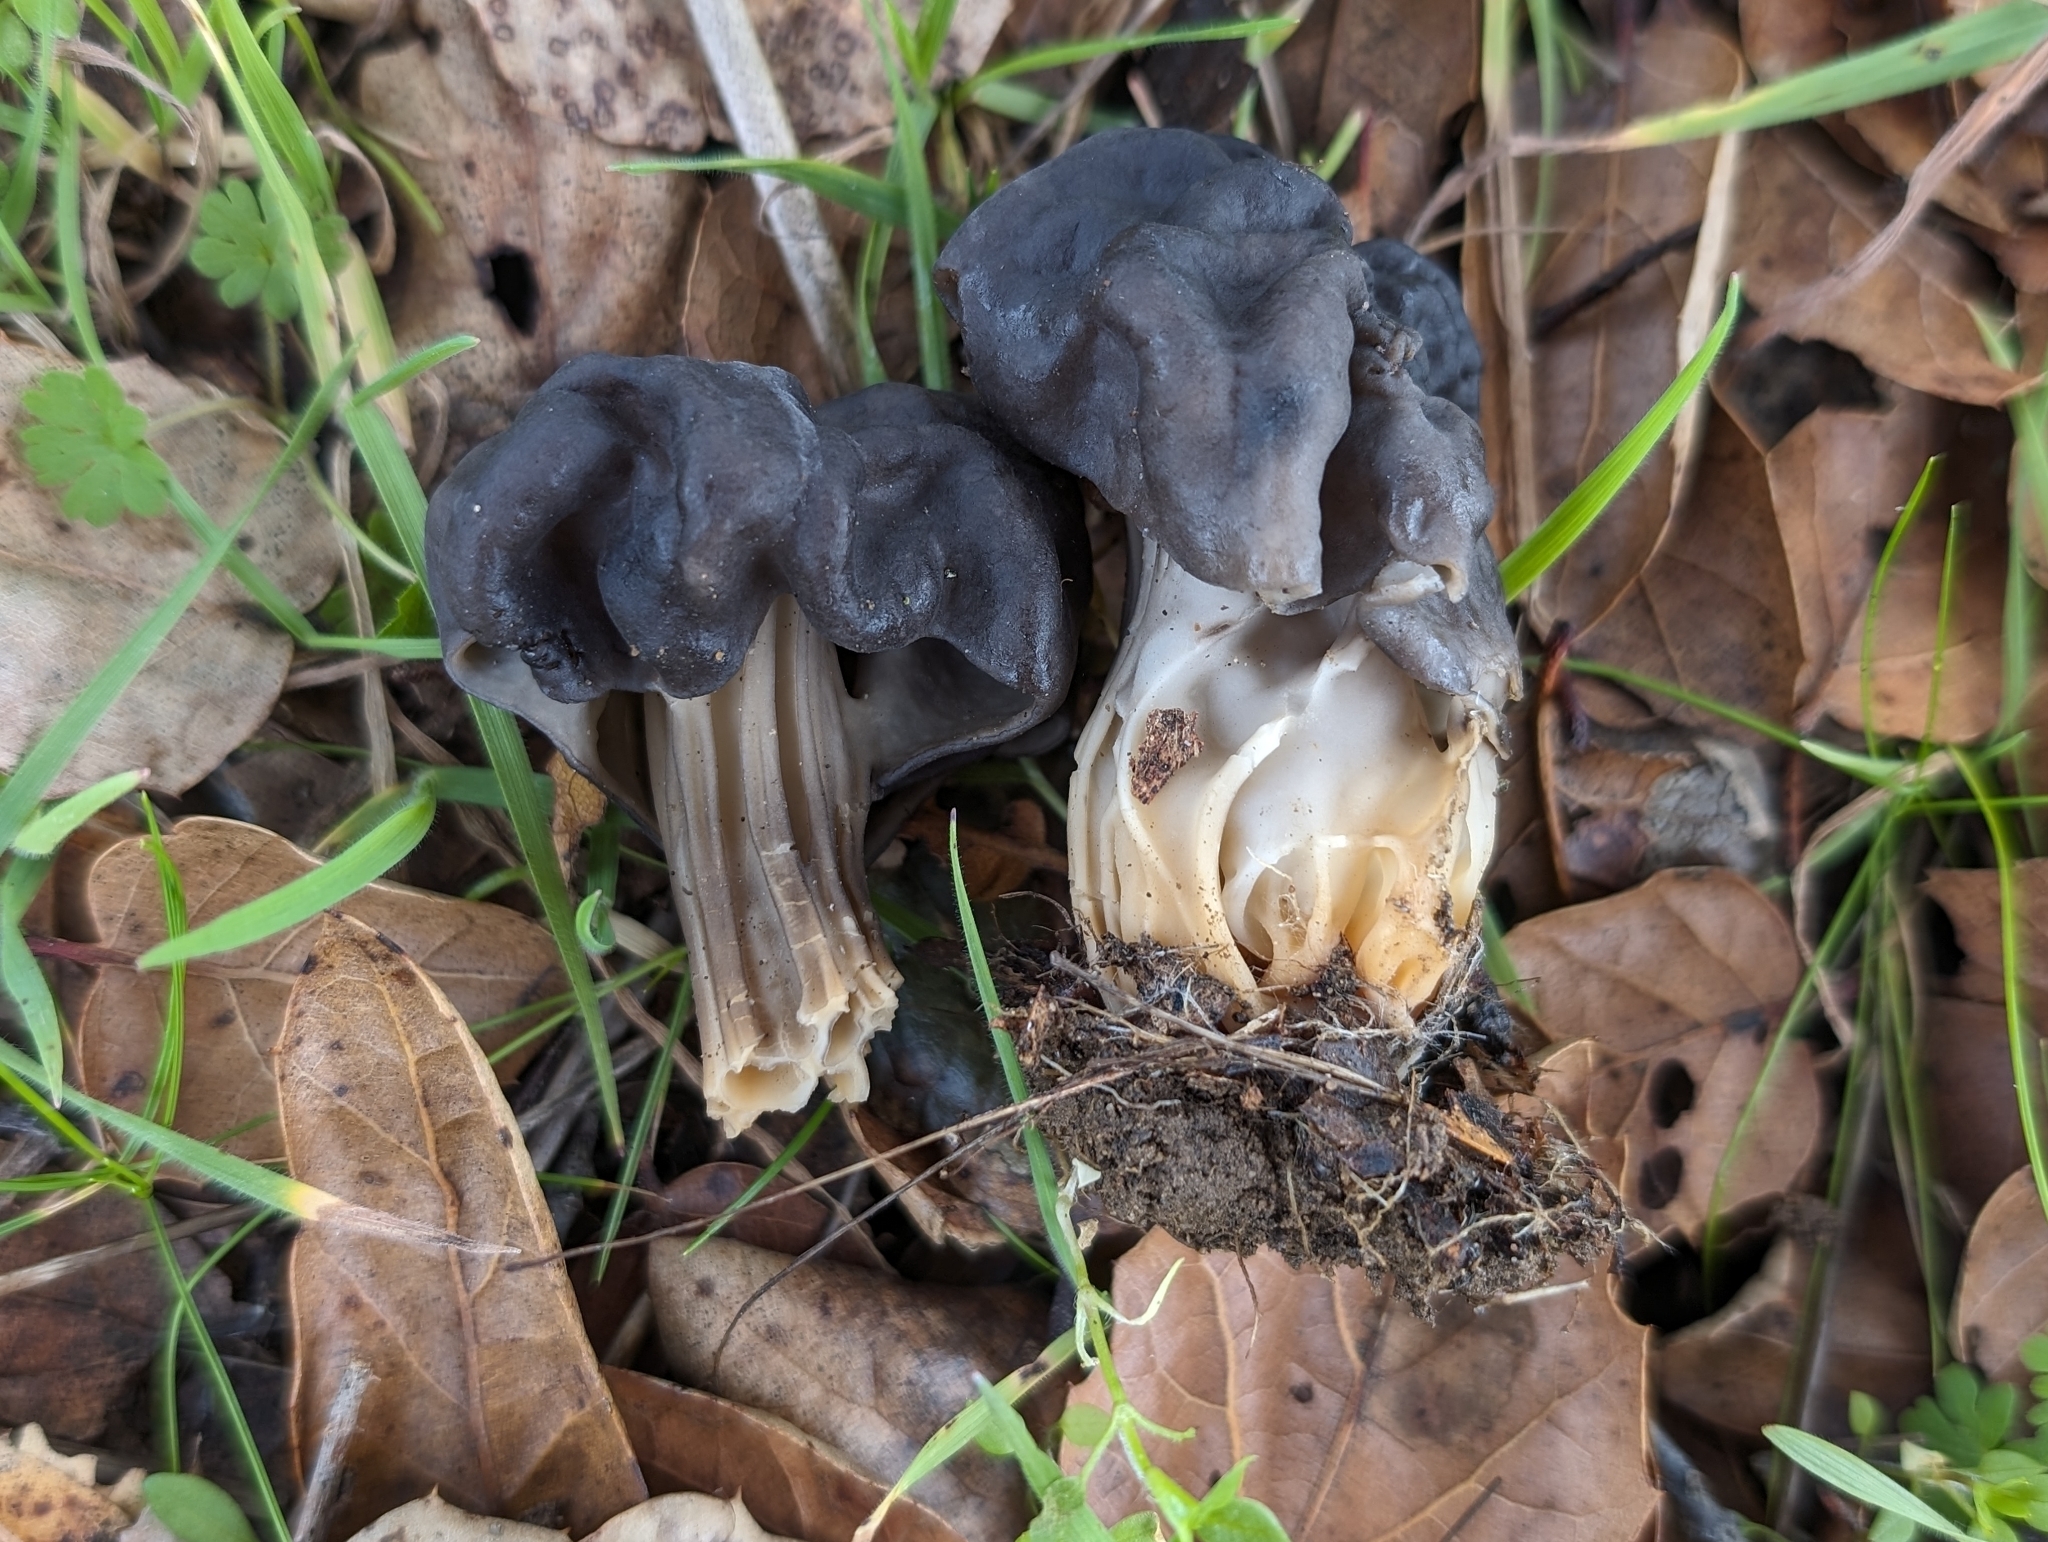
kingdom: Fungi
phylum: Ascomycota
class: Pezizomycetes
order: Pezizales
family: Helvellaceae
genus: Helvella
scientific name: Helvella dryophila
